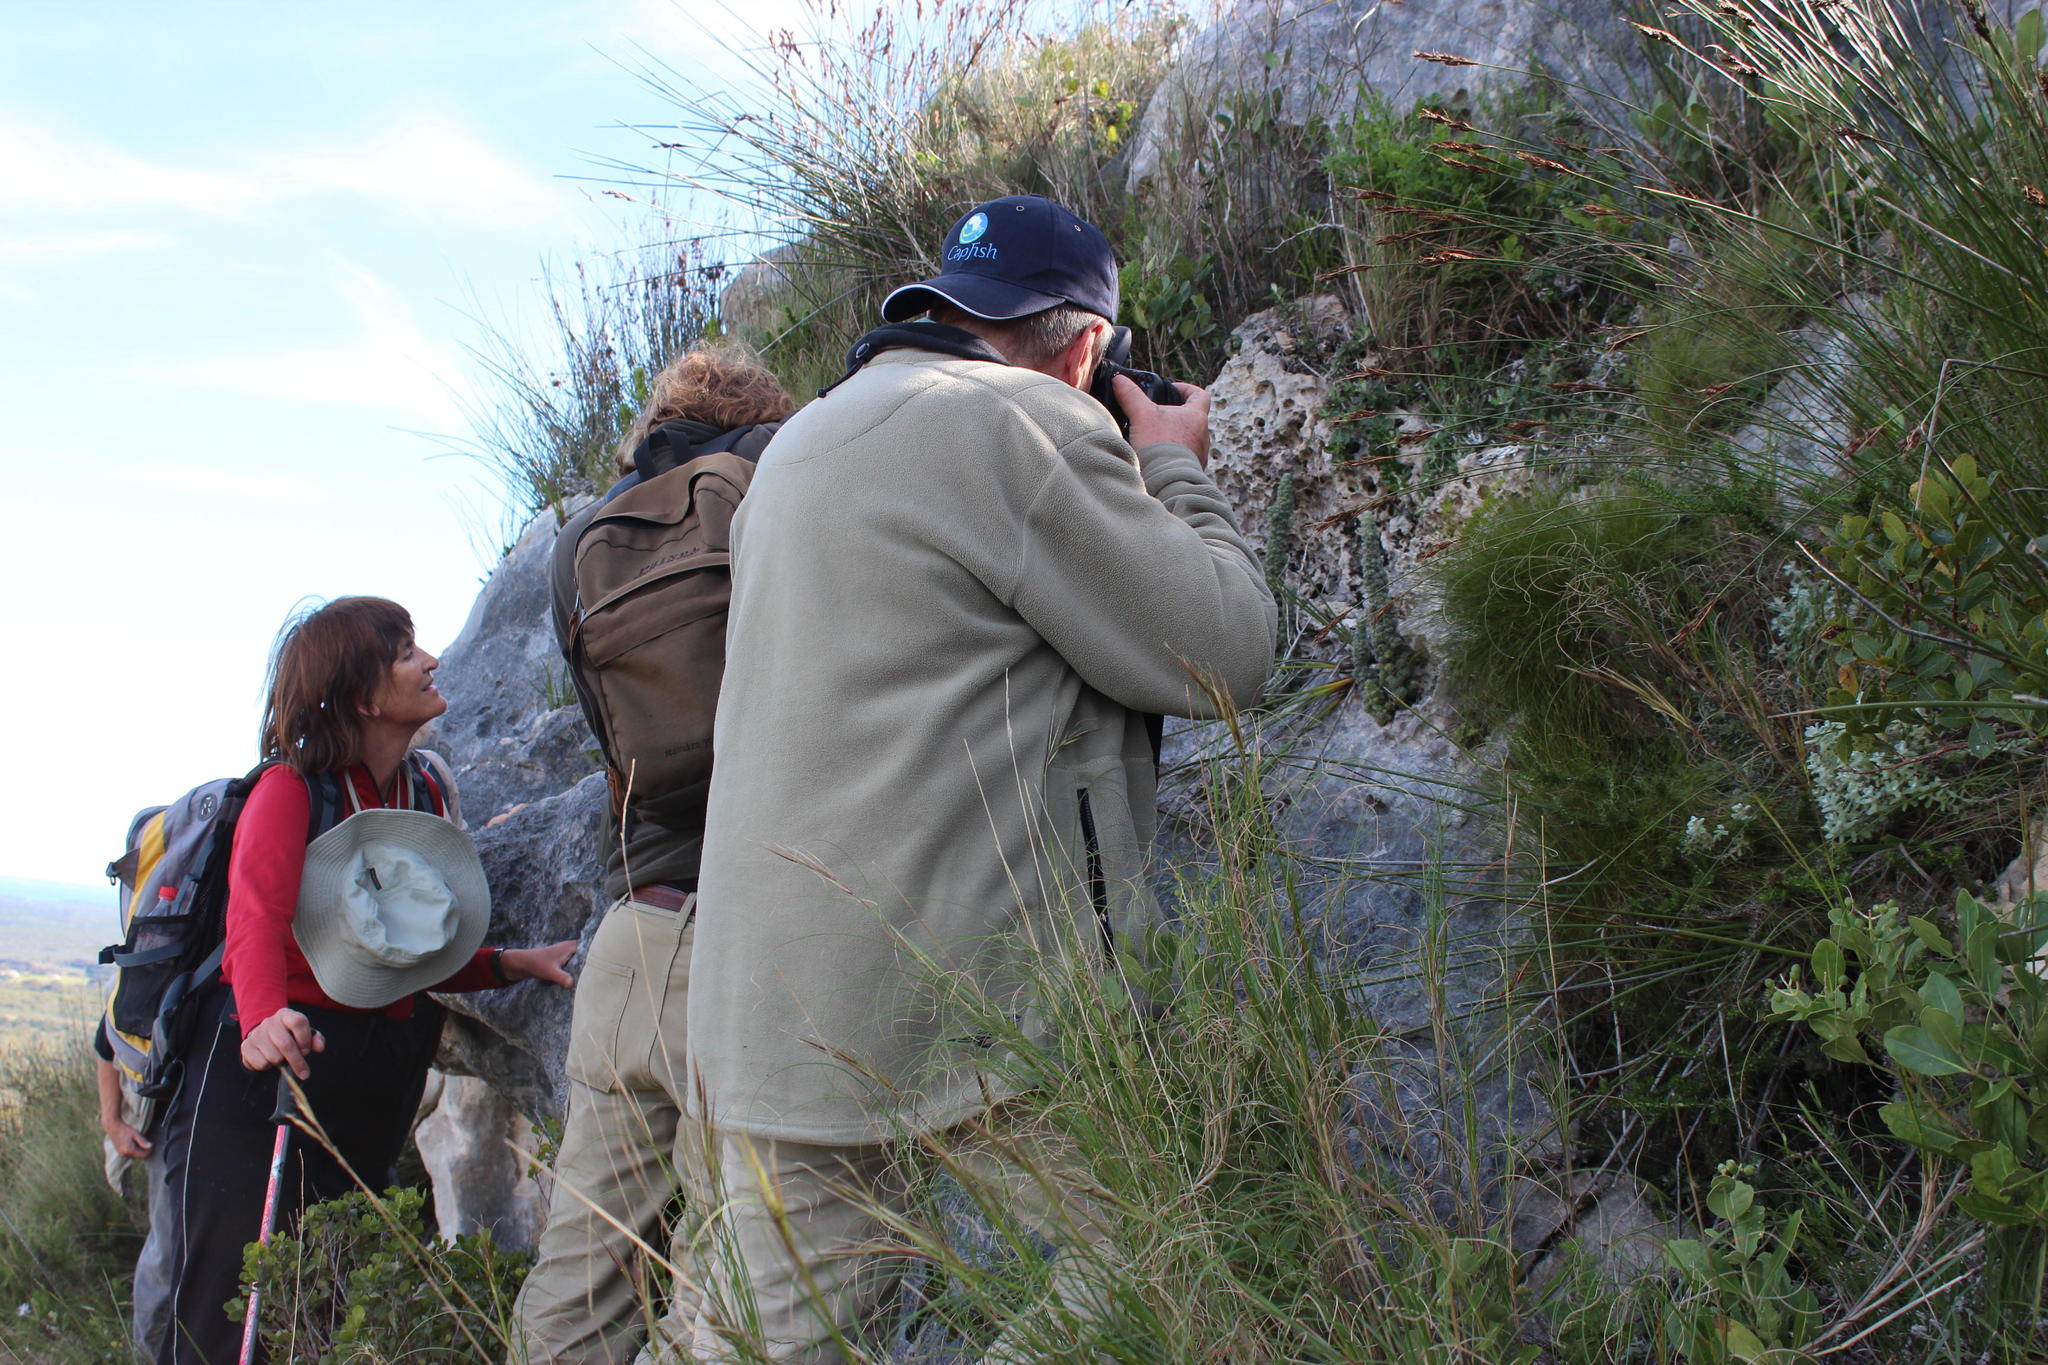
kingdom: Plantae
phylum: Tracheophyta
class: Magnoliopsida
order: Ericales
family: Ericaceae
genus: Erica
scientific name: Erica occulta
